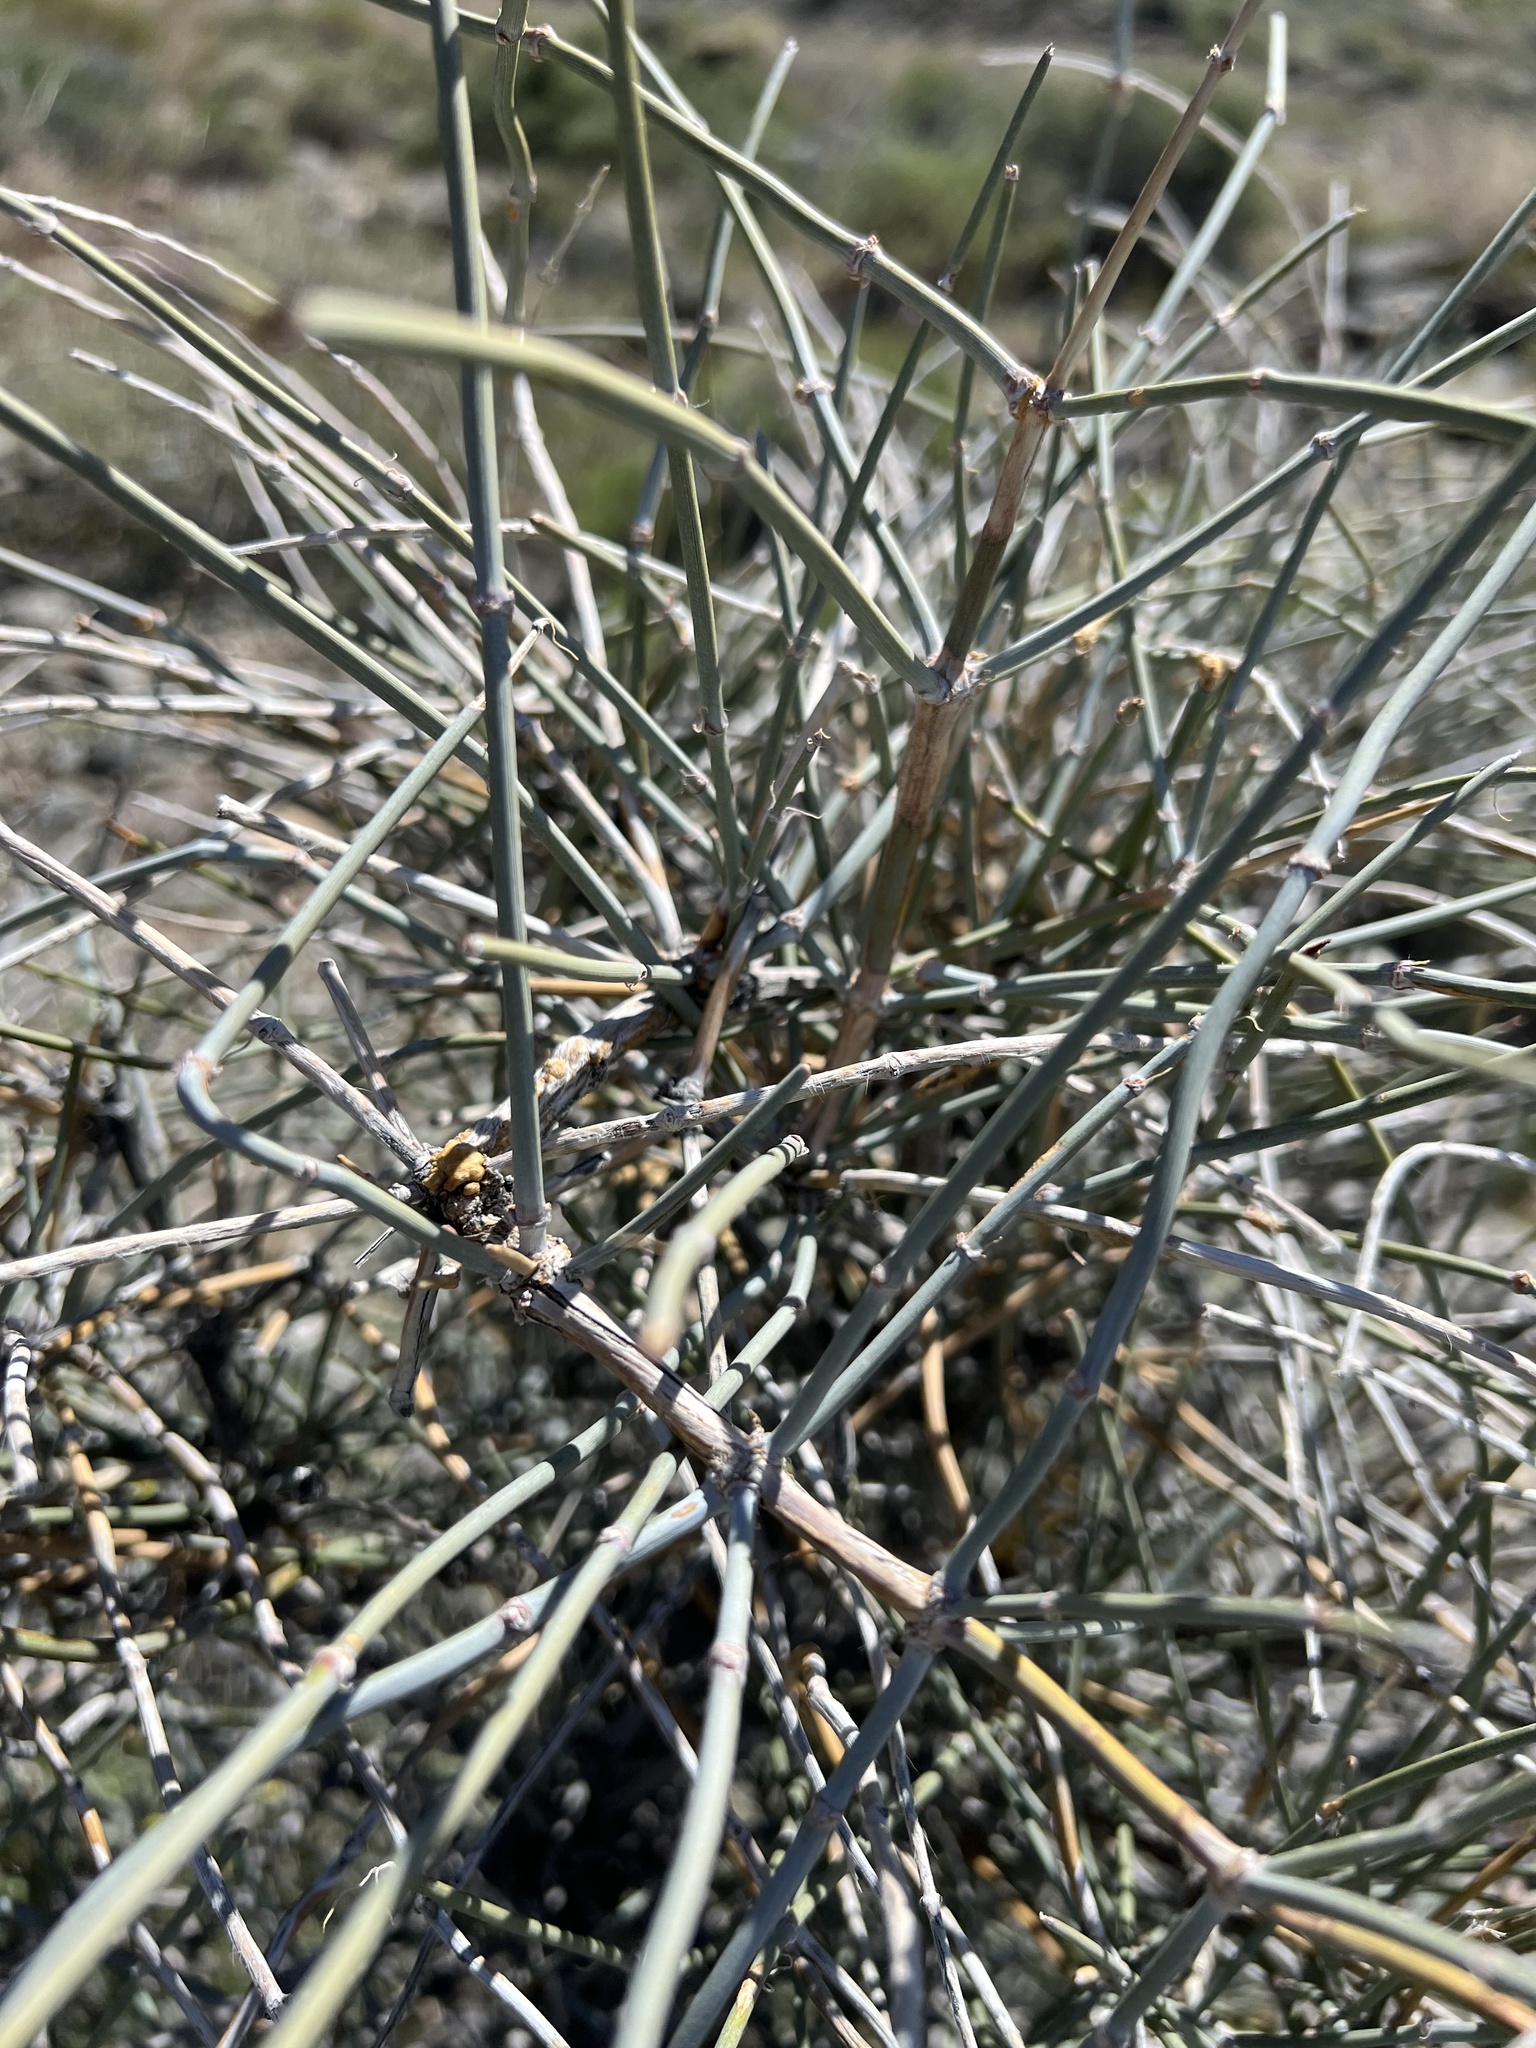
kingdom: Plantae
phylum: Tracheophyta
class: Gnetopsida
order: Ephedrales
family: Ephedraceae
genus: Ephedra
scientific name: Ephedra nevadensis
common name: Gray ephedra
